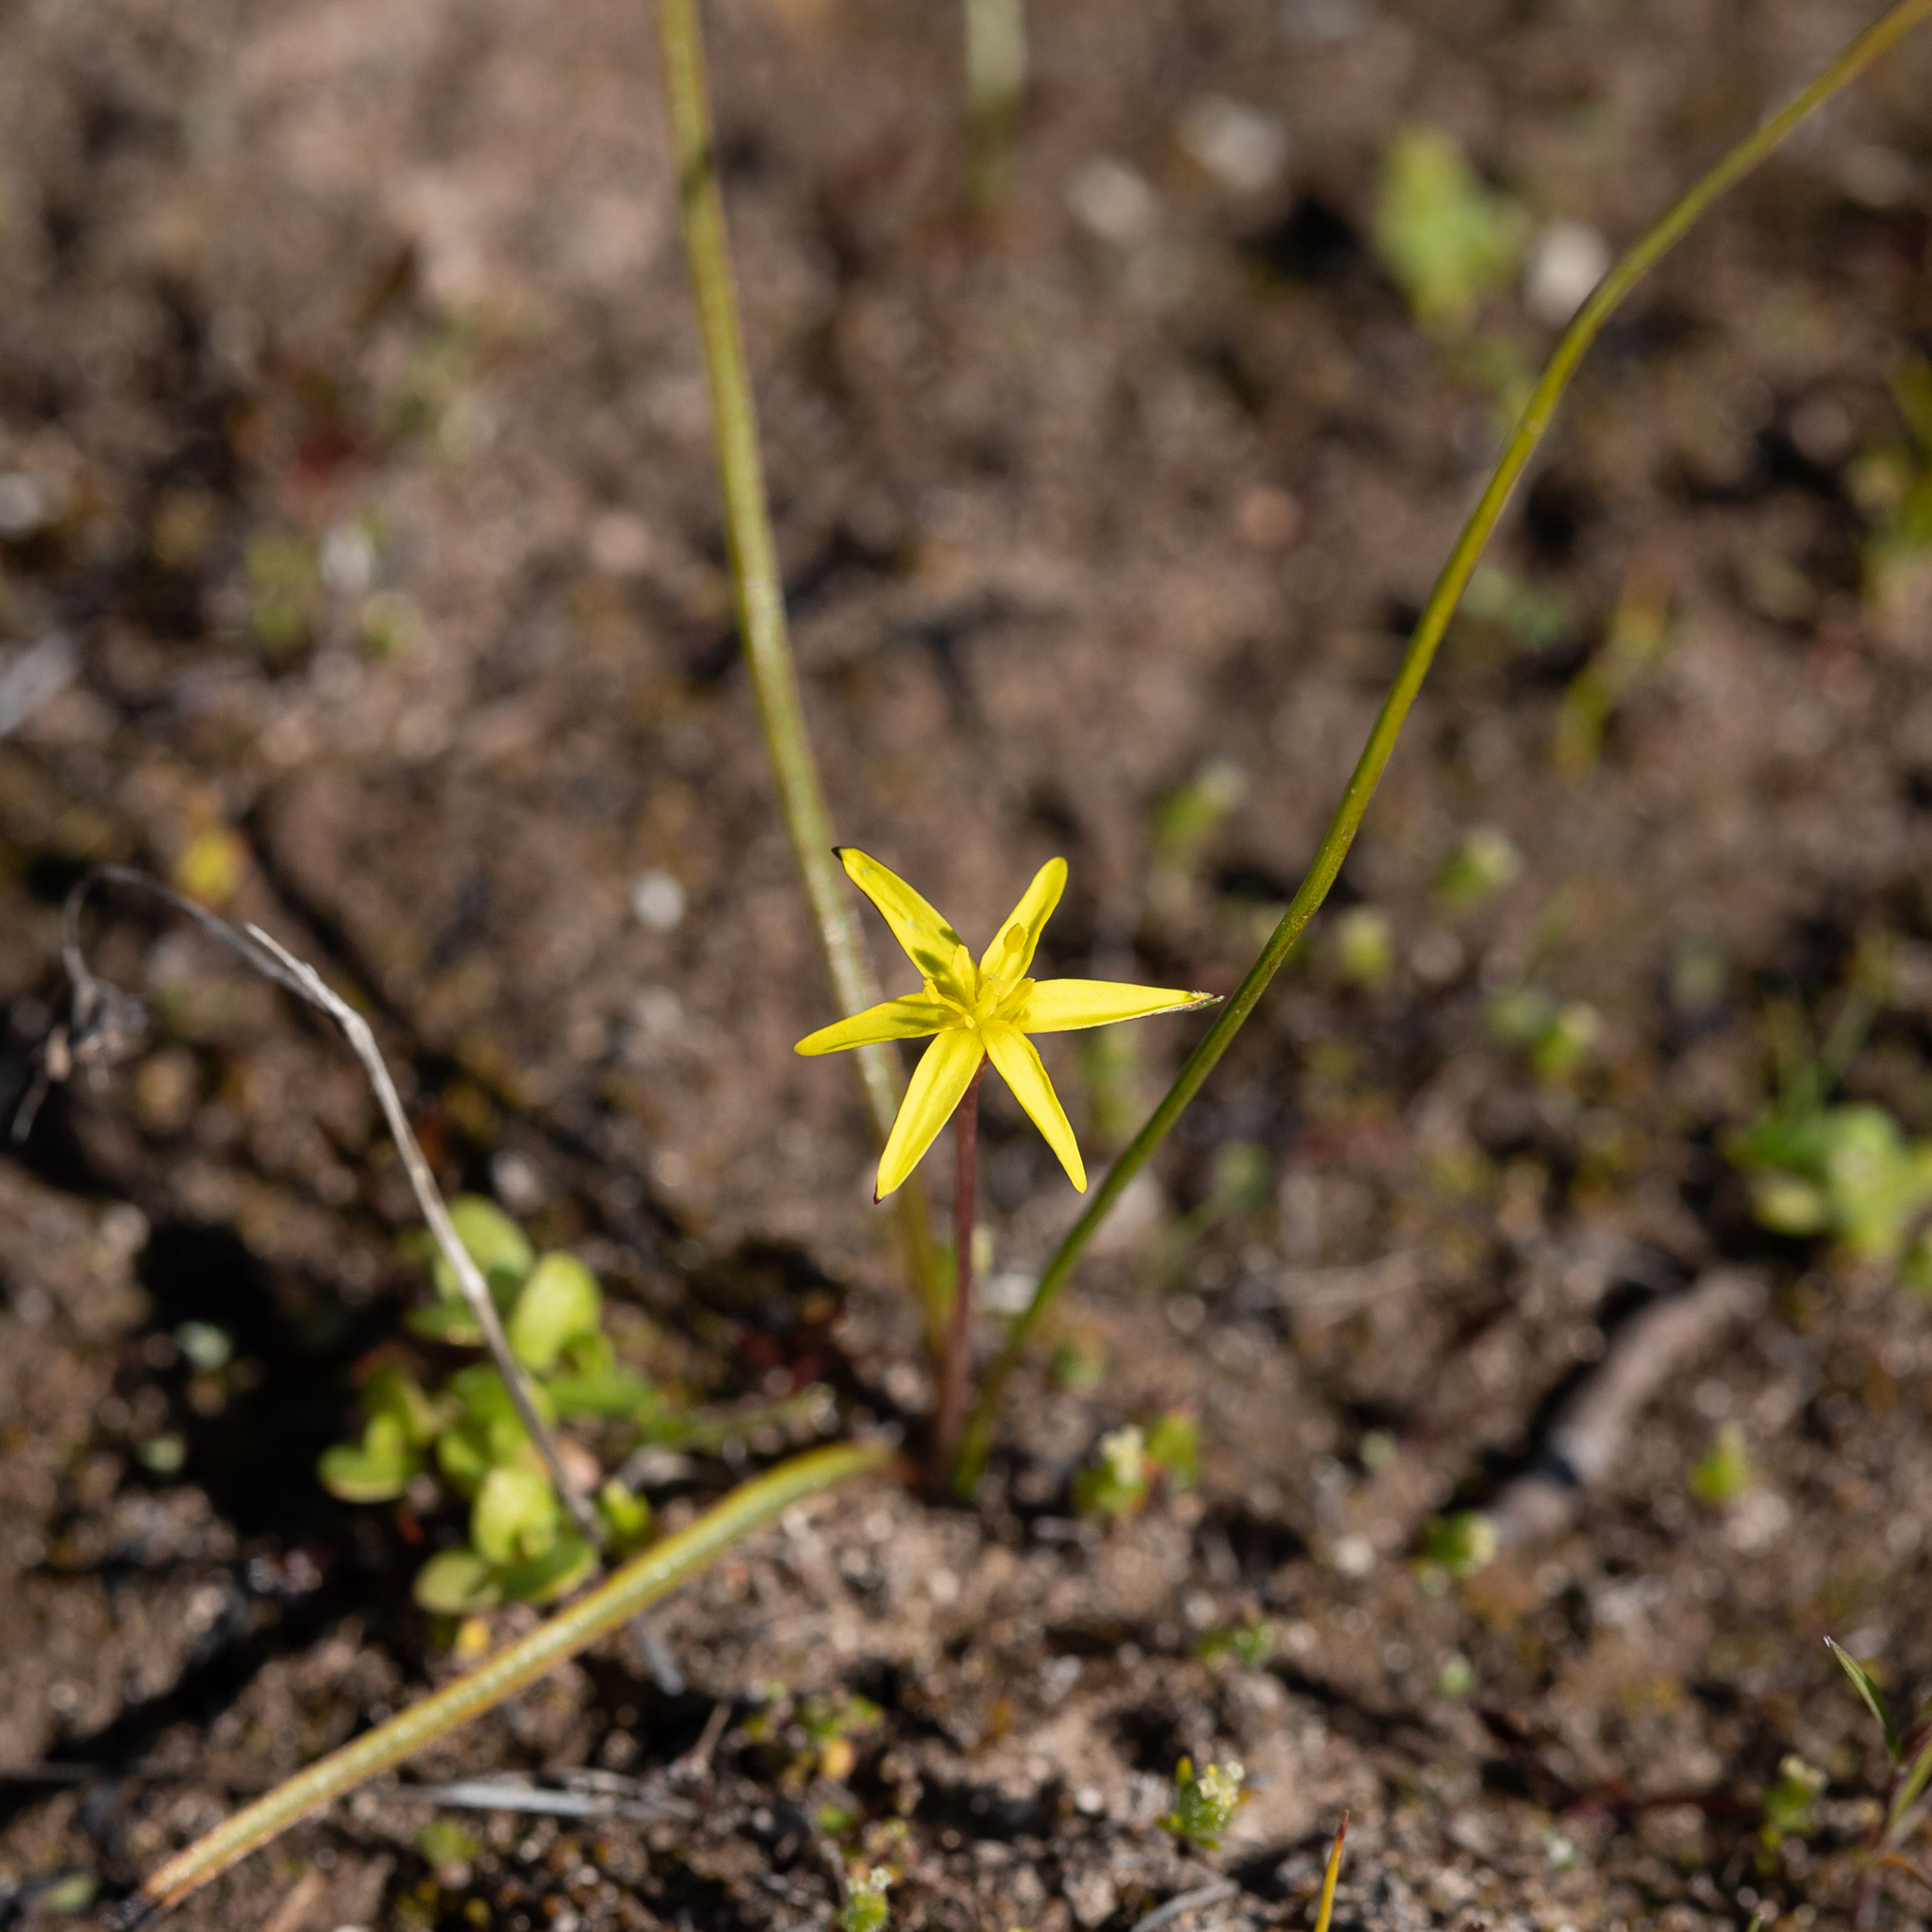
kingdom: Plantae
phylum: Tracheophyta
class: Liliopsida
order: Asparagales
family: Hypoxidaceae
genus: Pauridia
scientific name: Pauridia glabella
